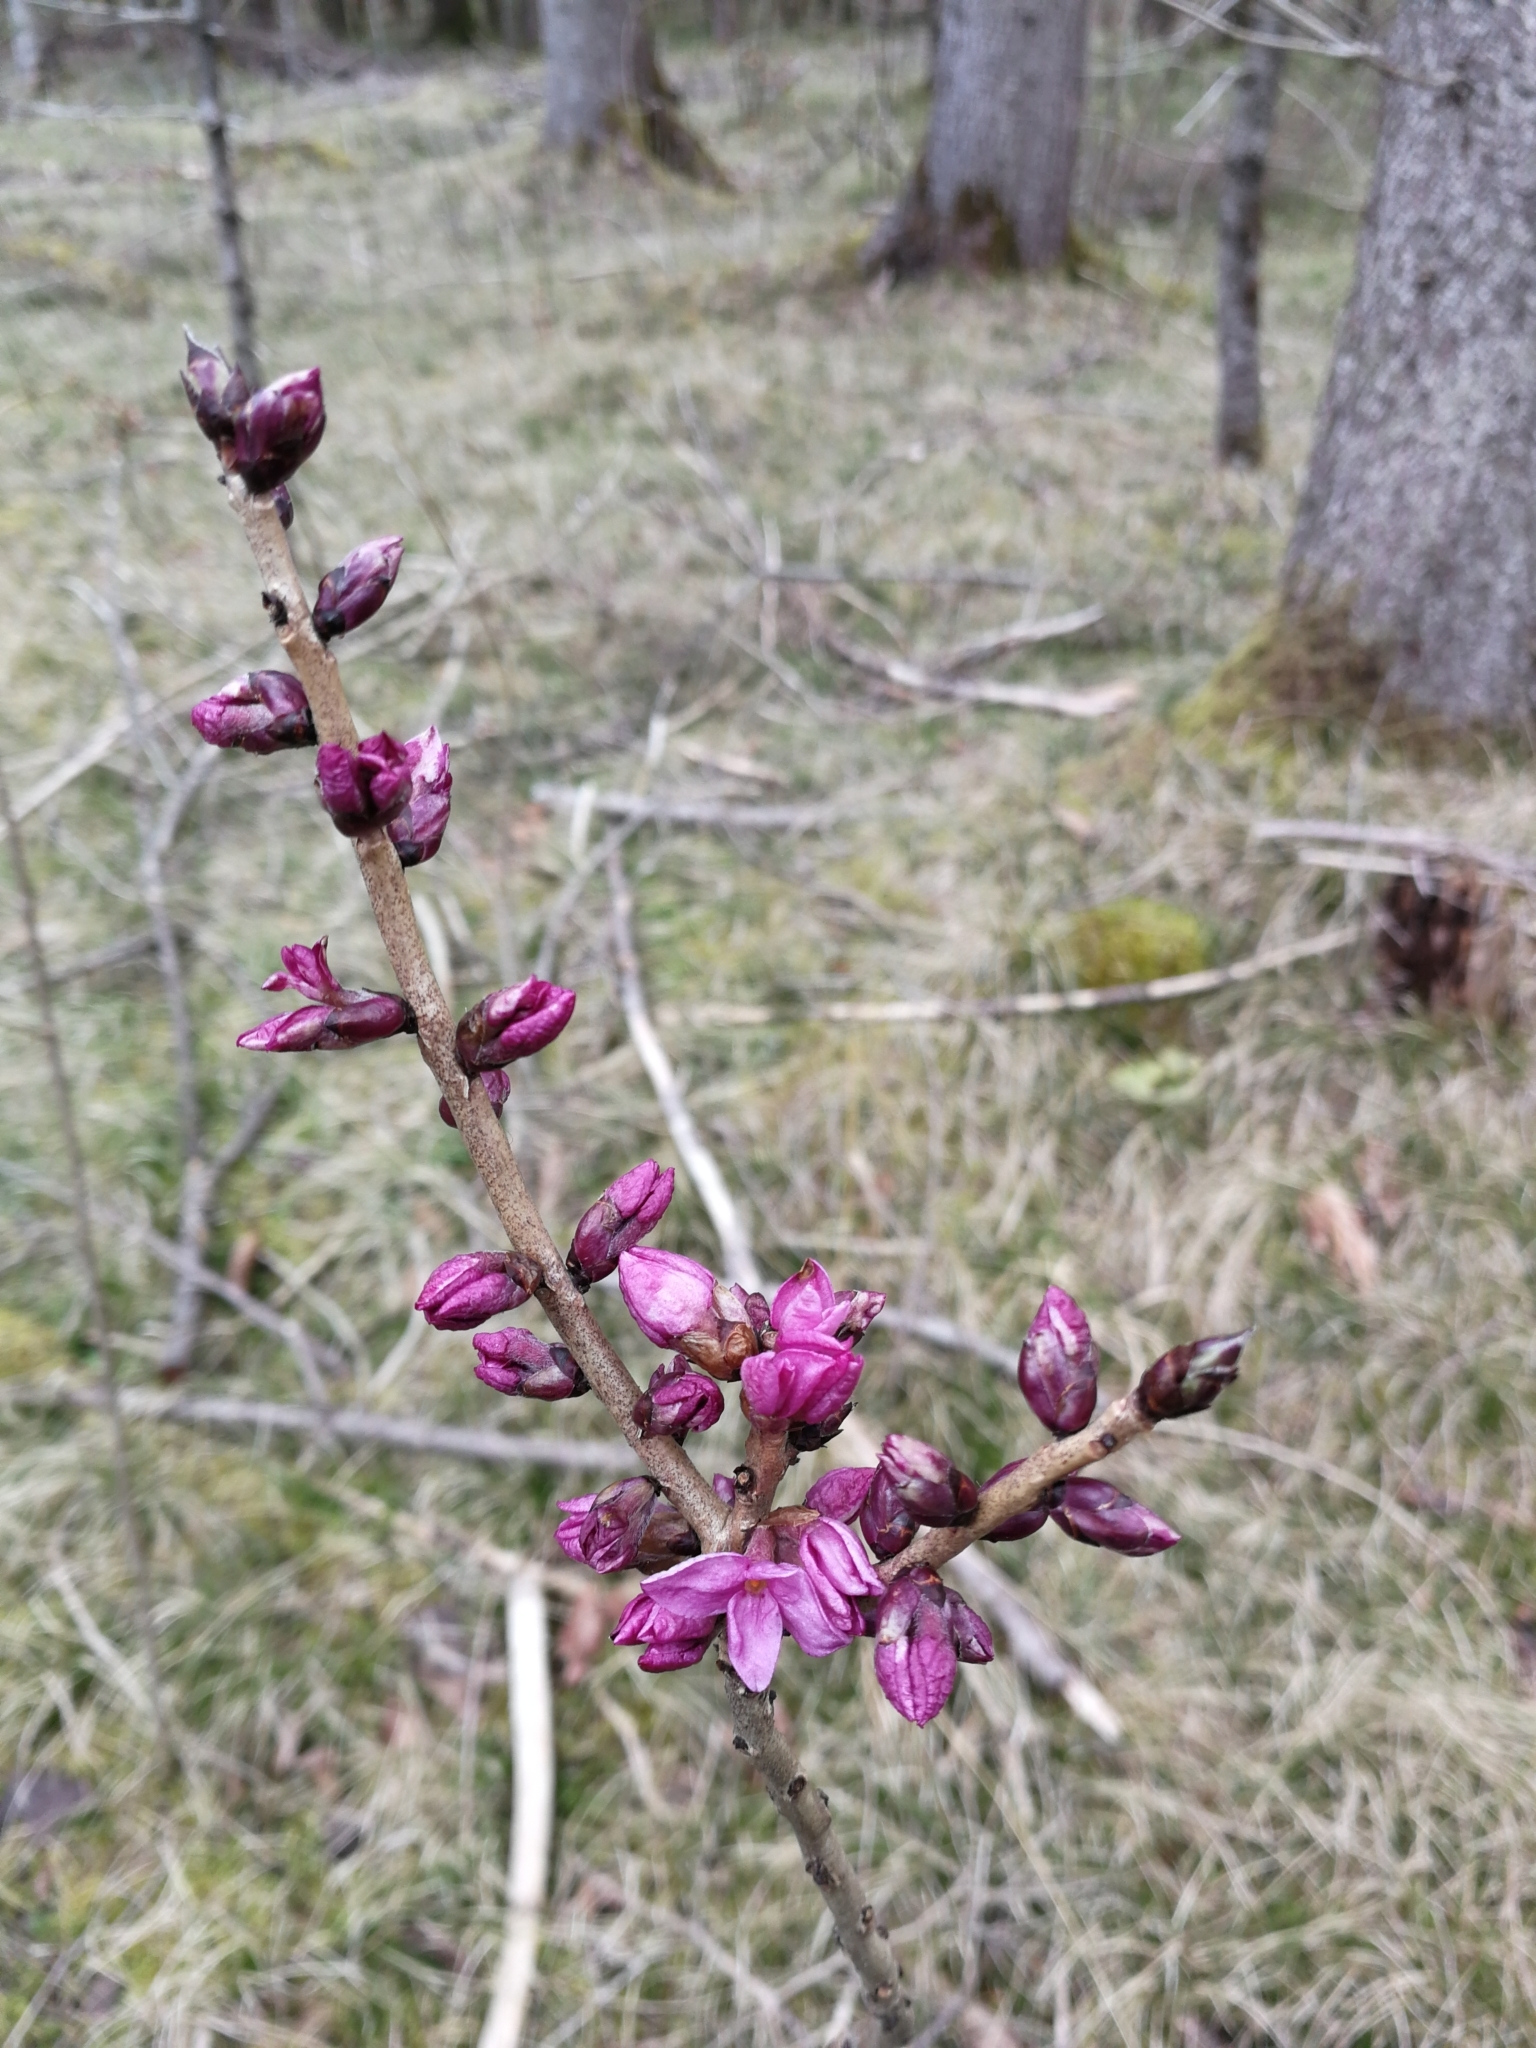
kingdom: Plantae
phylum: Tracheophyta
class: Magnoliopsida
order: Malvales
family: Thymelaeaceae
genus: Daphne
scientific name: Daphne mezereum
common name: Mezereon
